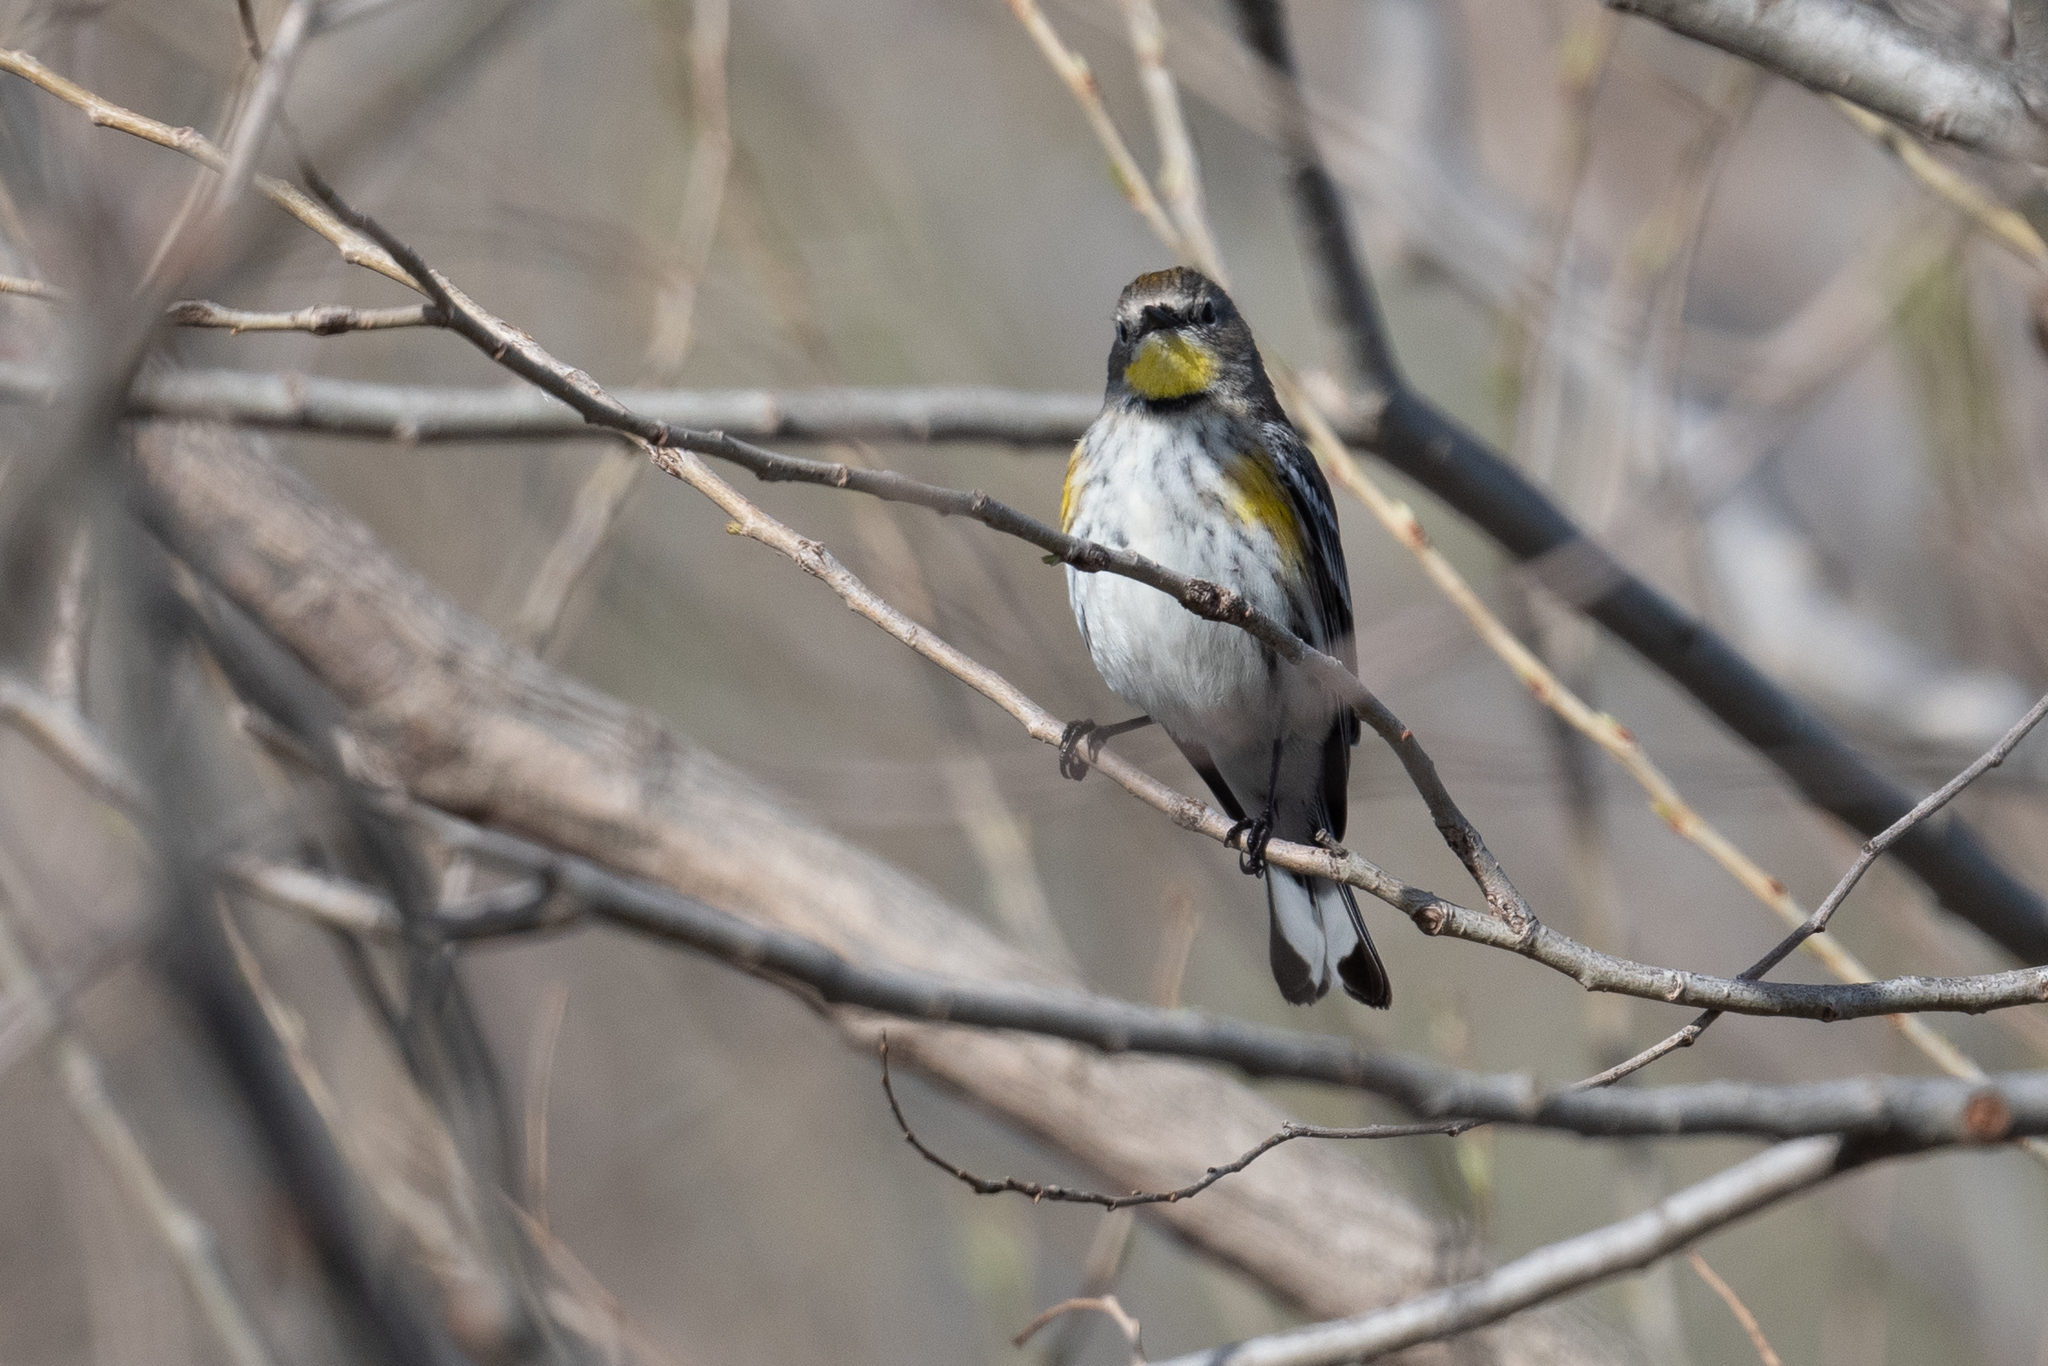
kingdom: Animalia
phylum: Chordata
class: Aves
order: Passeriformes
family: Parulidae
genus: Setophaga
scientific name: Setophaga coronata
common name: Myrtle warbler
